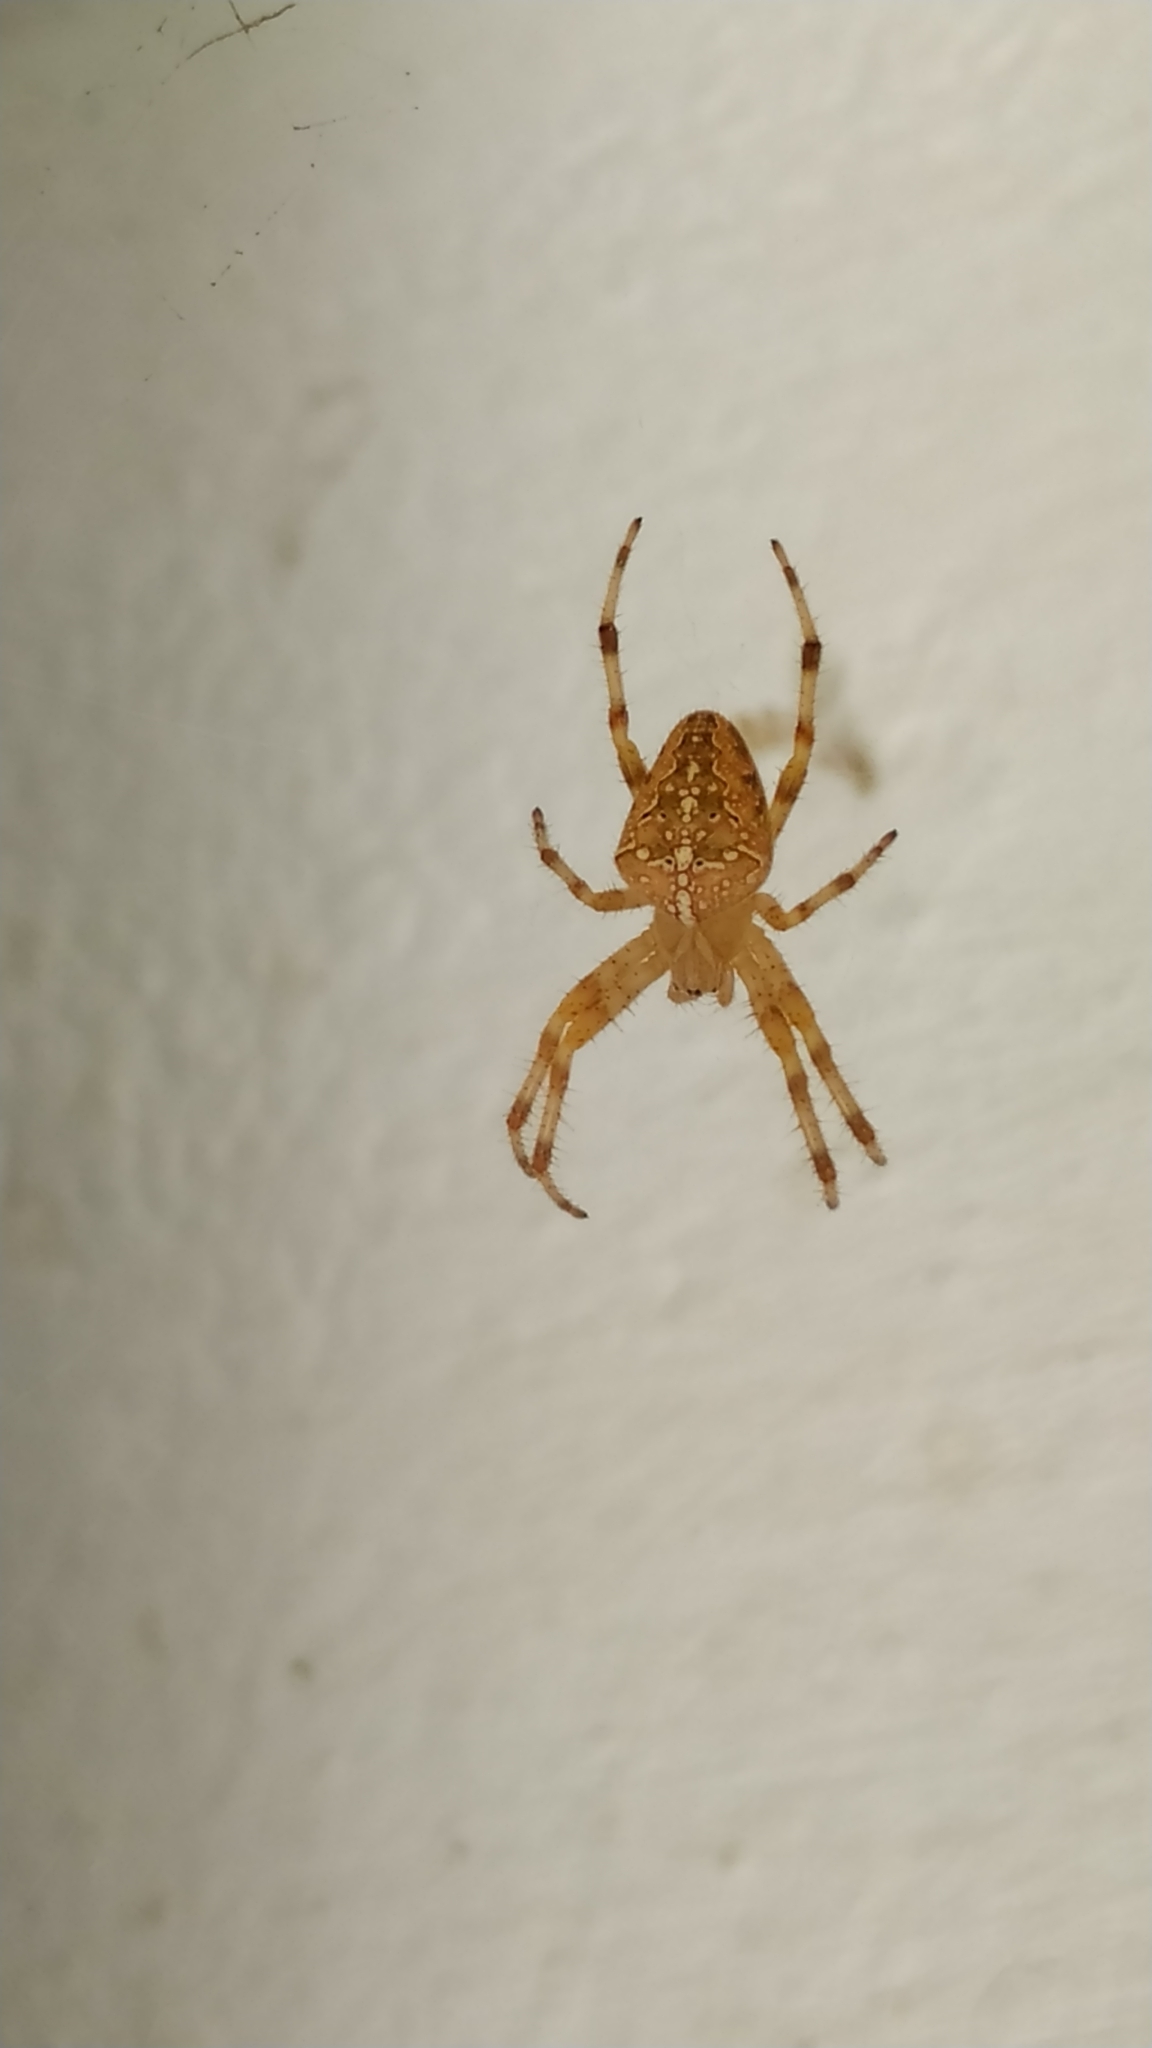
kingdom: Animalia
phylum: Arthropoda
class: Arachnida
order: Araneae
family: Araneidae
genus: Araneus
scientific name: Araneus diadematus
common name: Cross orbweaver
